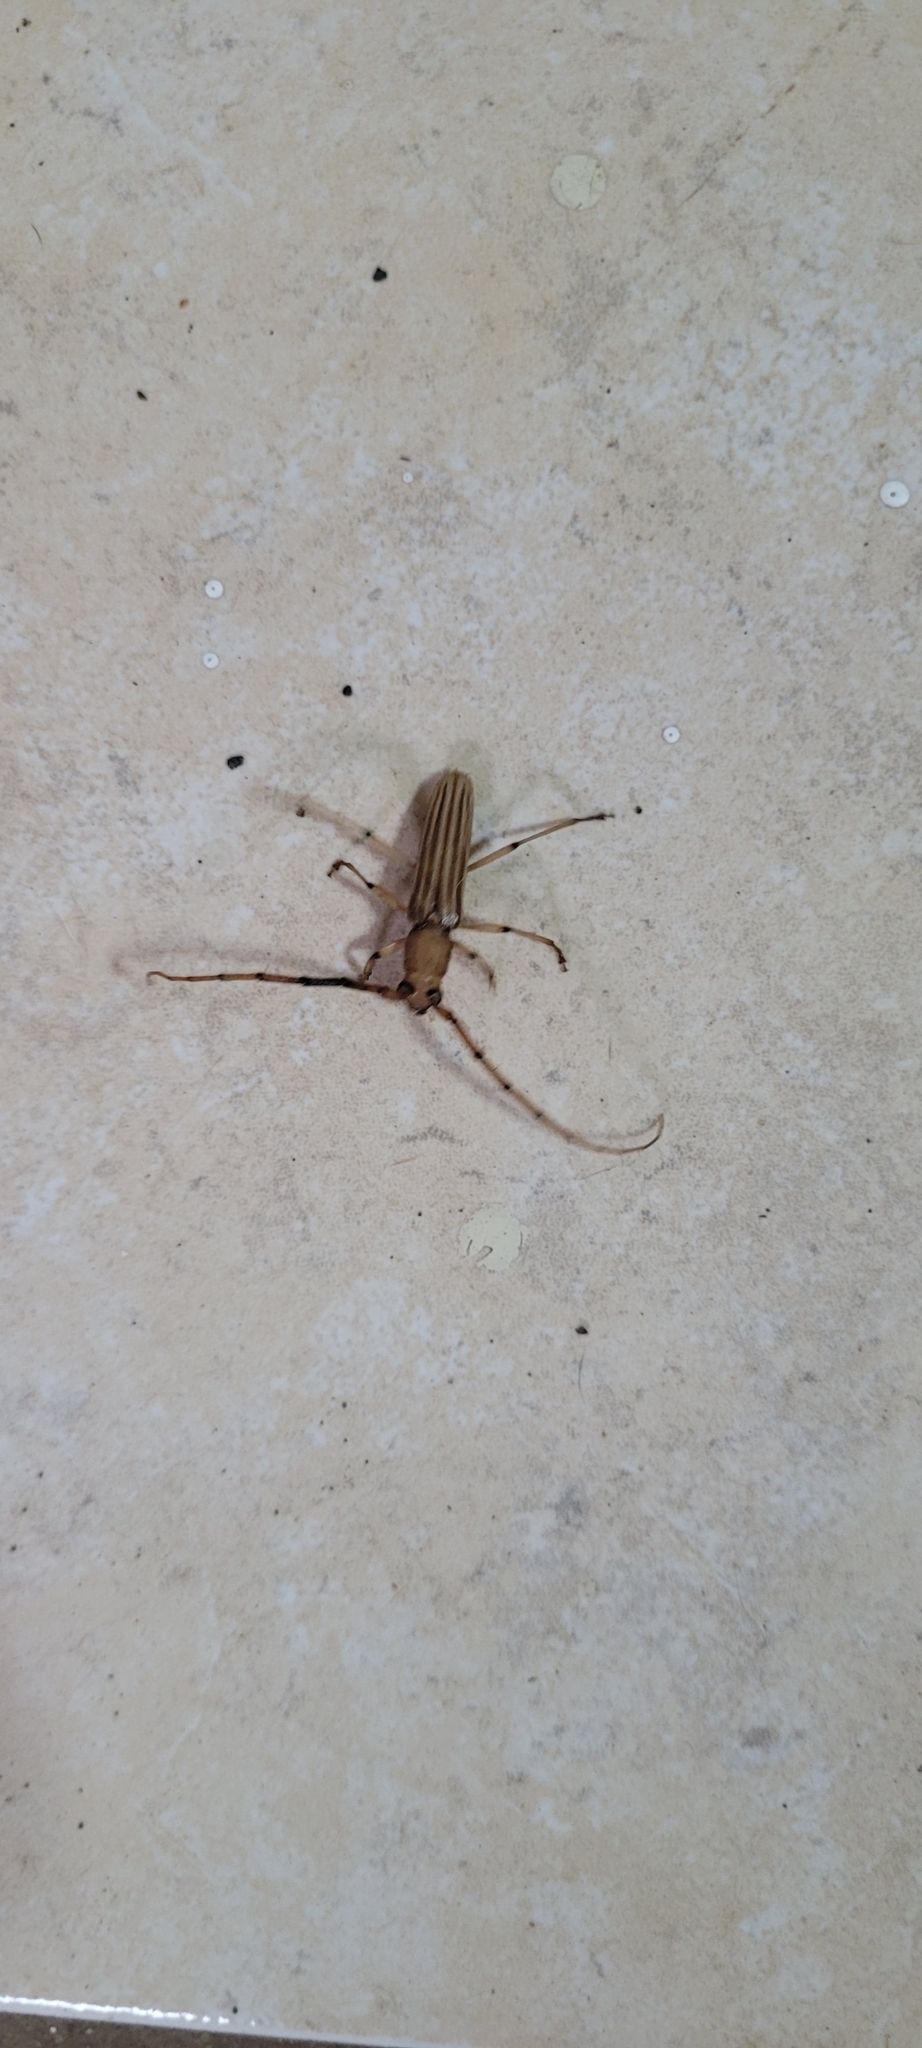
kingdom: Animalia
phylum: Arthropoda
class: Insecta
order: Coleoptera
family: Cerambycidae
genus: Malacopterus
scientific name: Malacopterus tenellus
